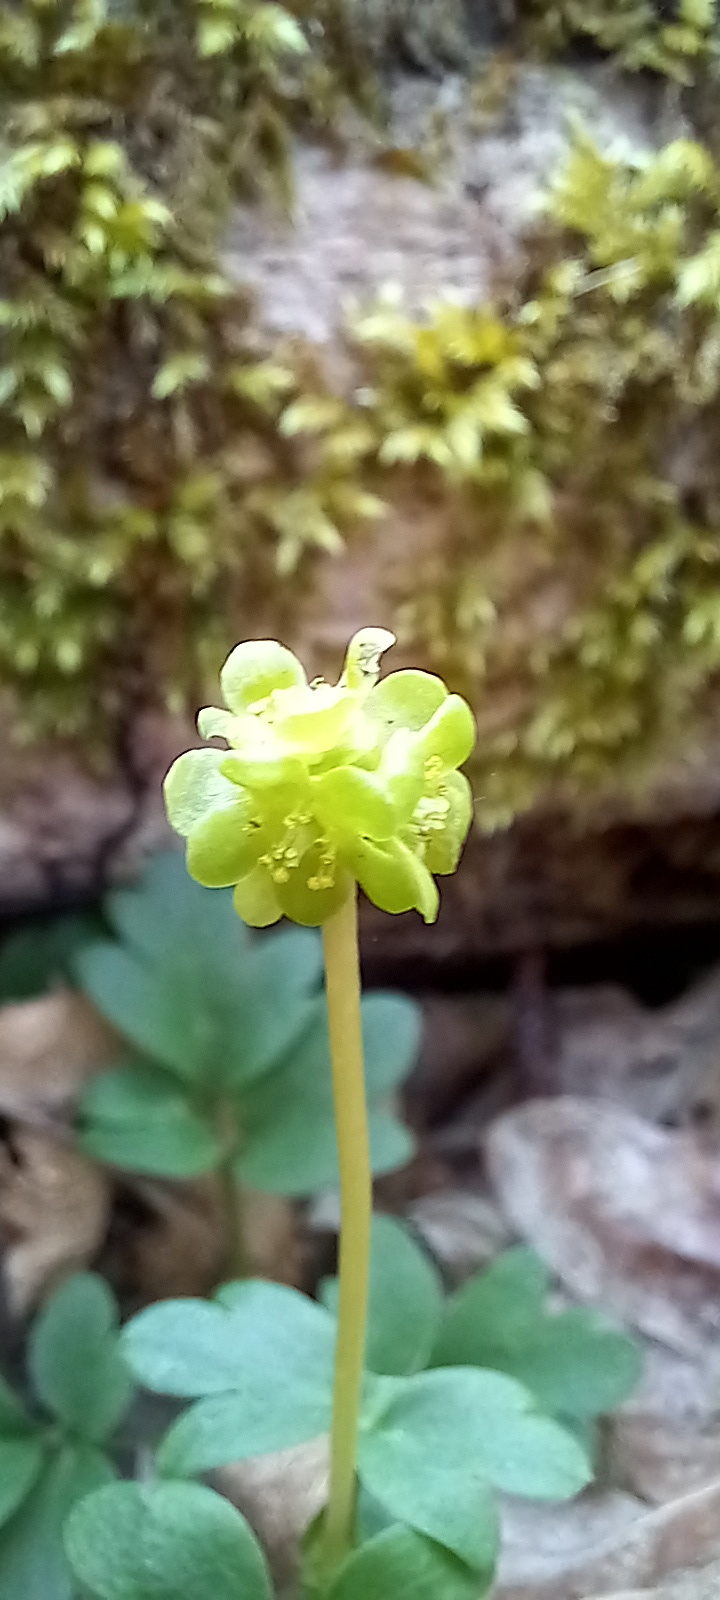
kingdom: Plantae
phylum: Tracheophyta
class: Magnoliopsida
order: Dipsacales
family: Viburnaceae
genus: Adoxa
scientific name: Adoxa moschatellina
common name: Moschatel
